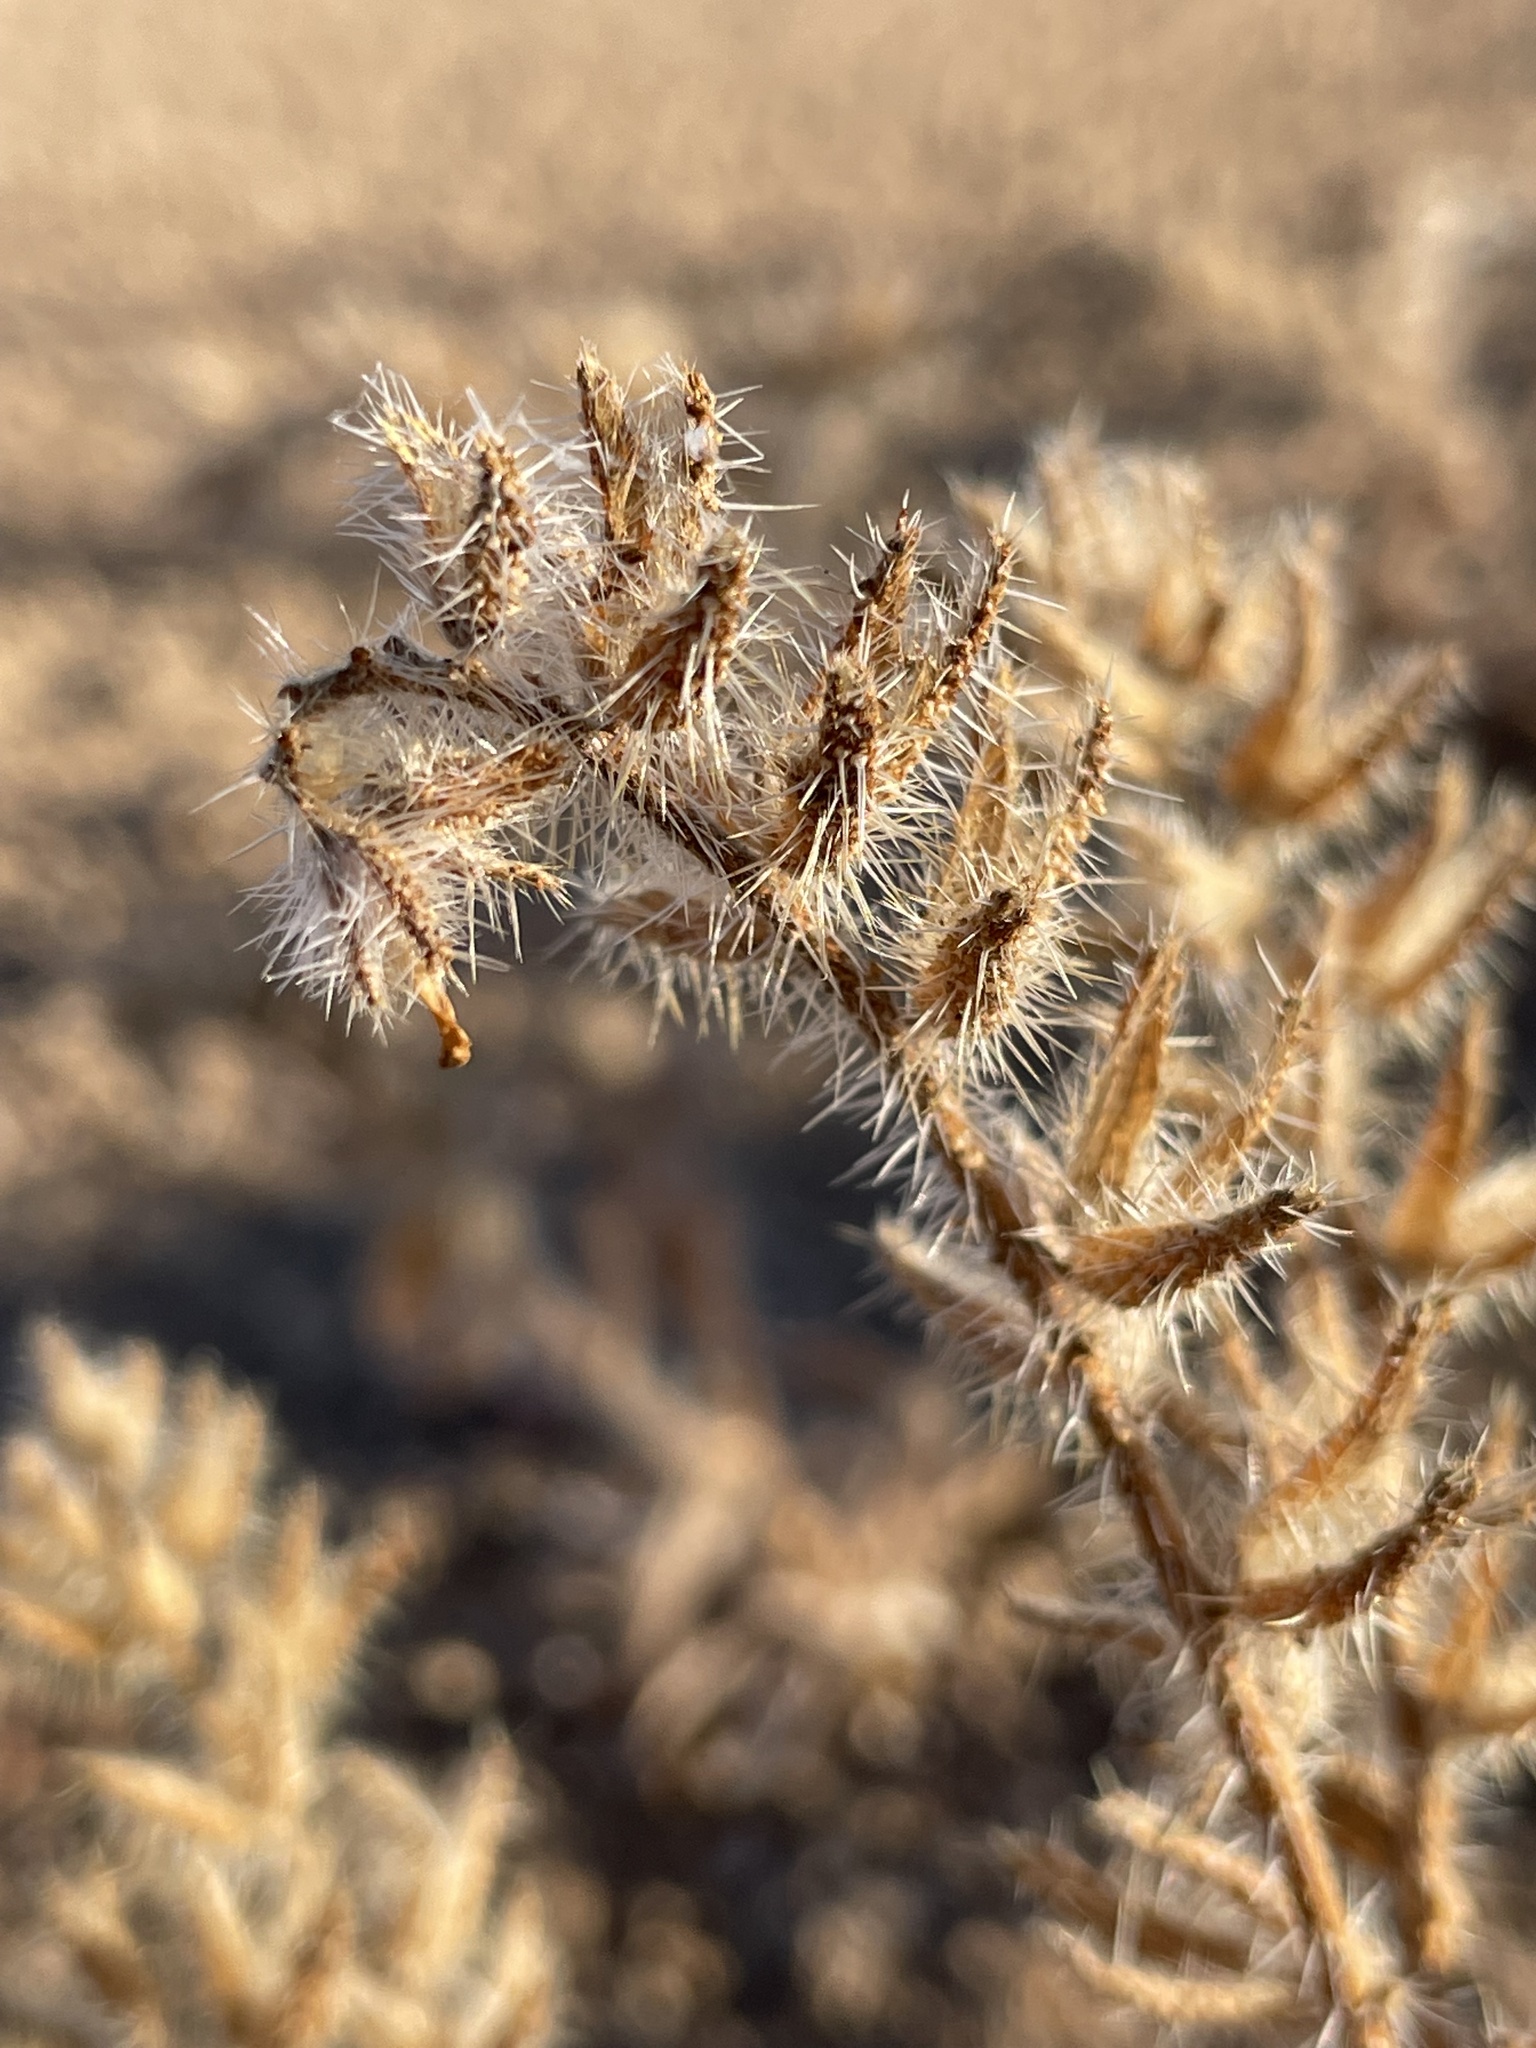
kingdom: Plantae
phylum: Tracheophyta
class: Magnoliopsida
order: Boraginales
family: Boraginaceae
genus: Amsinckia
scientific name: Amsinckia tessellata
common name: Tessellate fiddleneck
